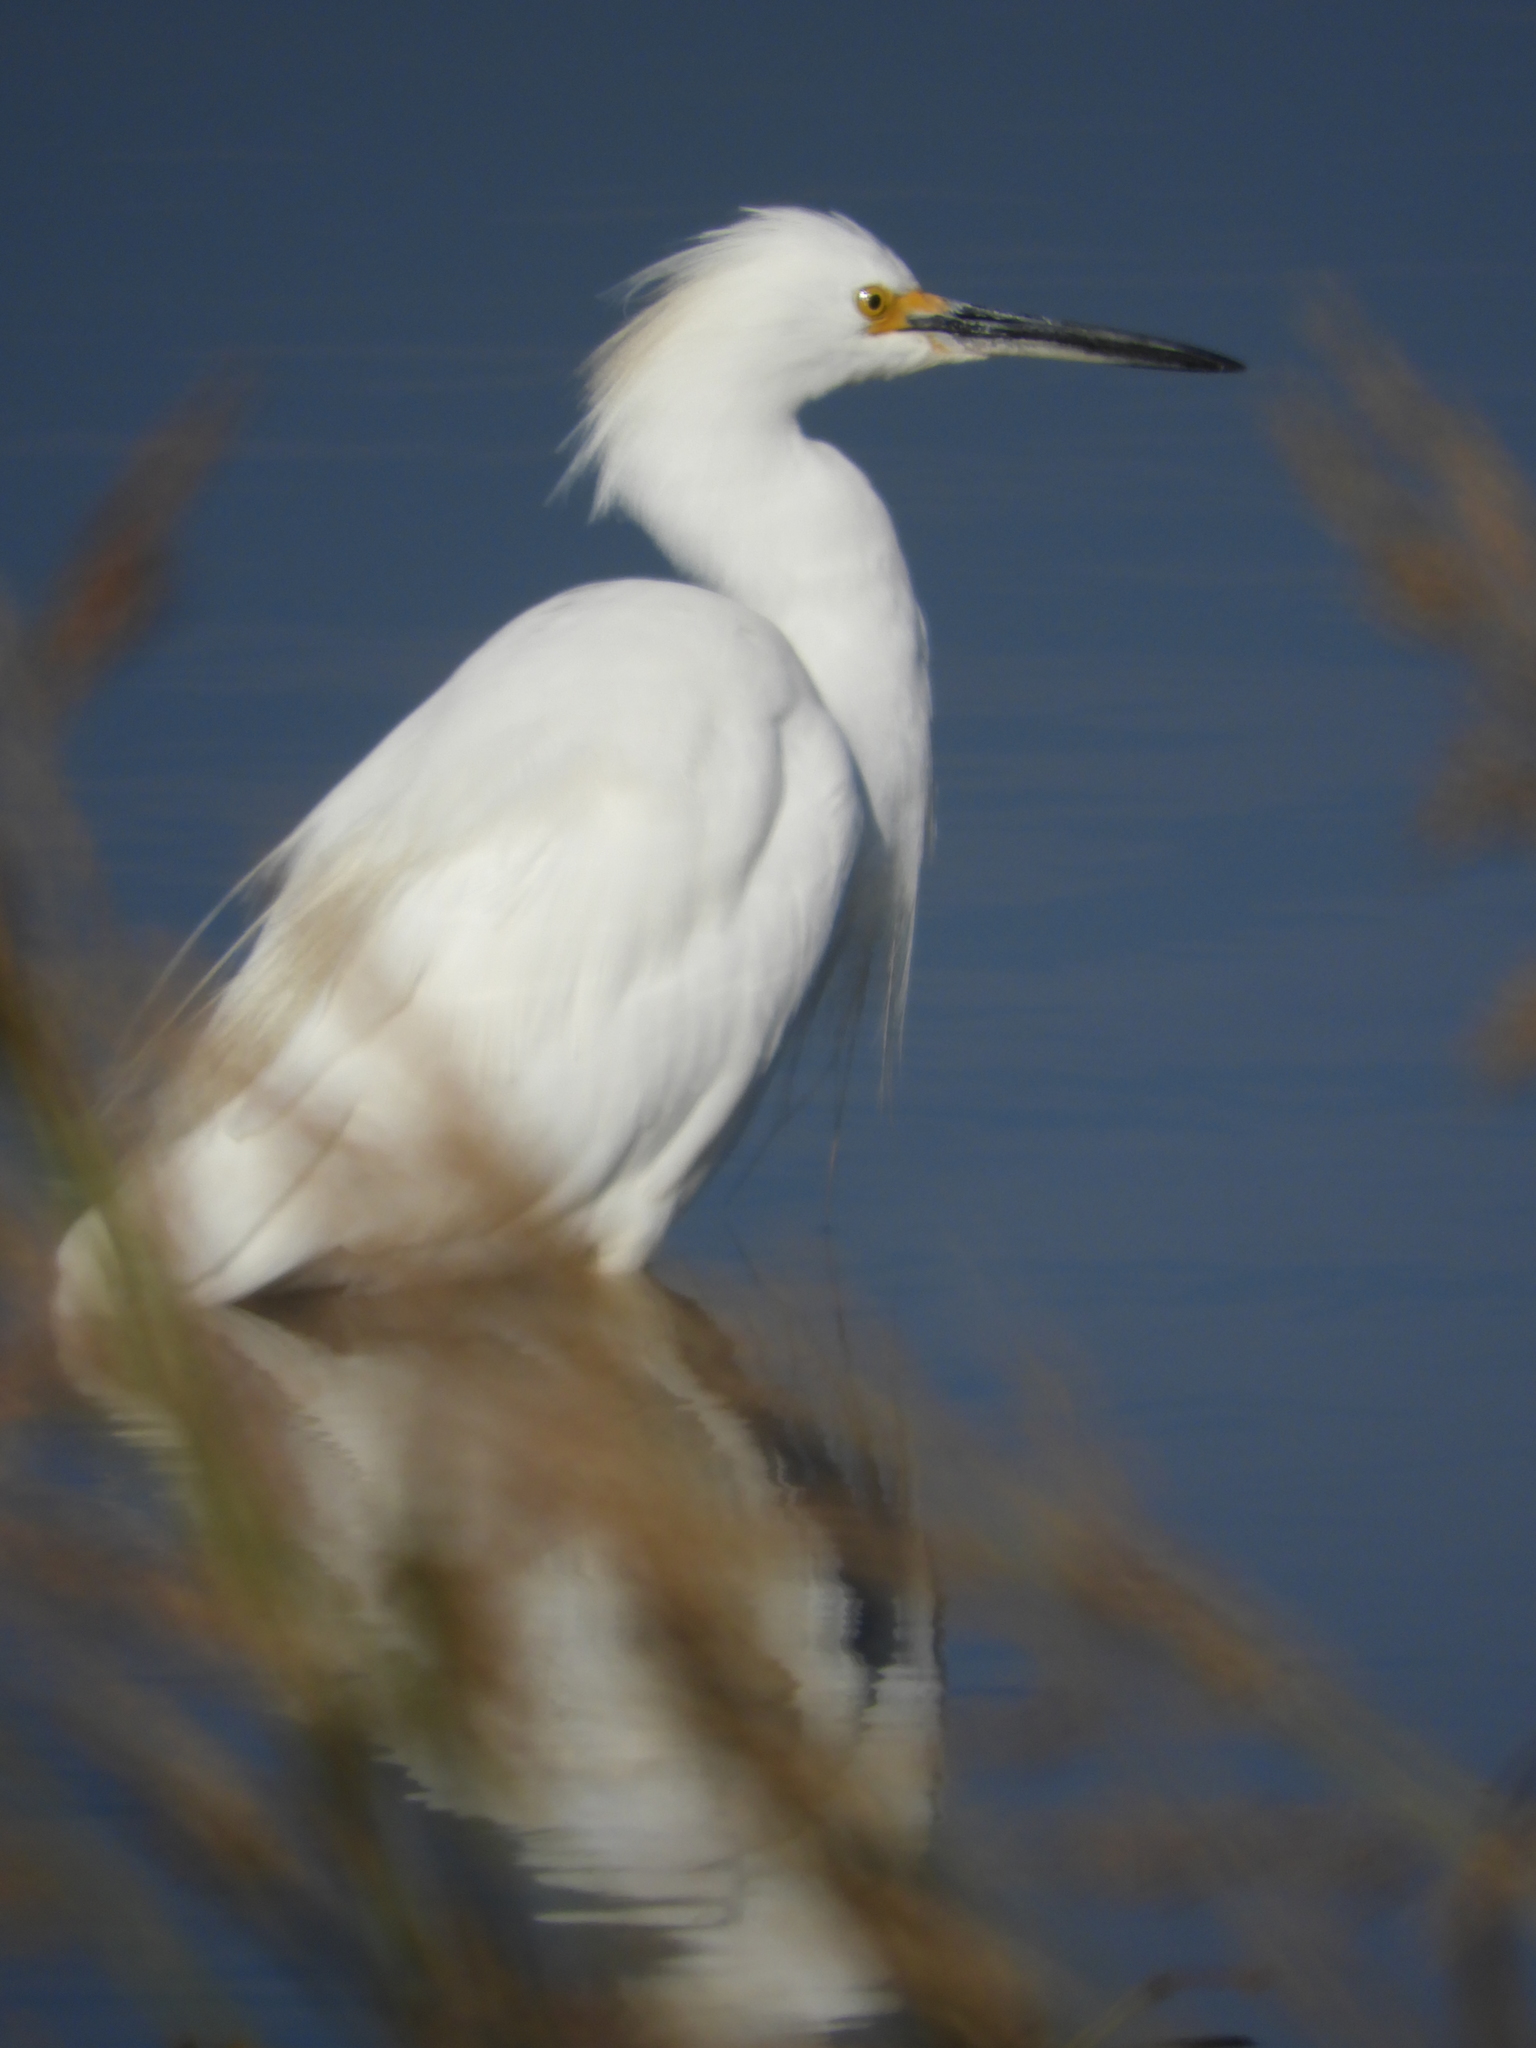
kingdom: Animalia
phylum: Chordata
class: Aves
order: Pelecaniformes
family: Ardeidae
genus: Egretta
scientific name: Egretta thula
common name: Snowy egret
